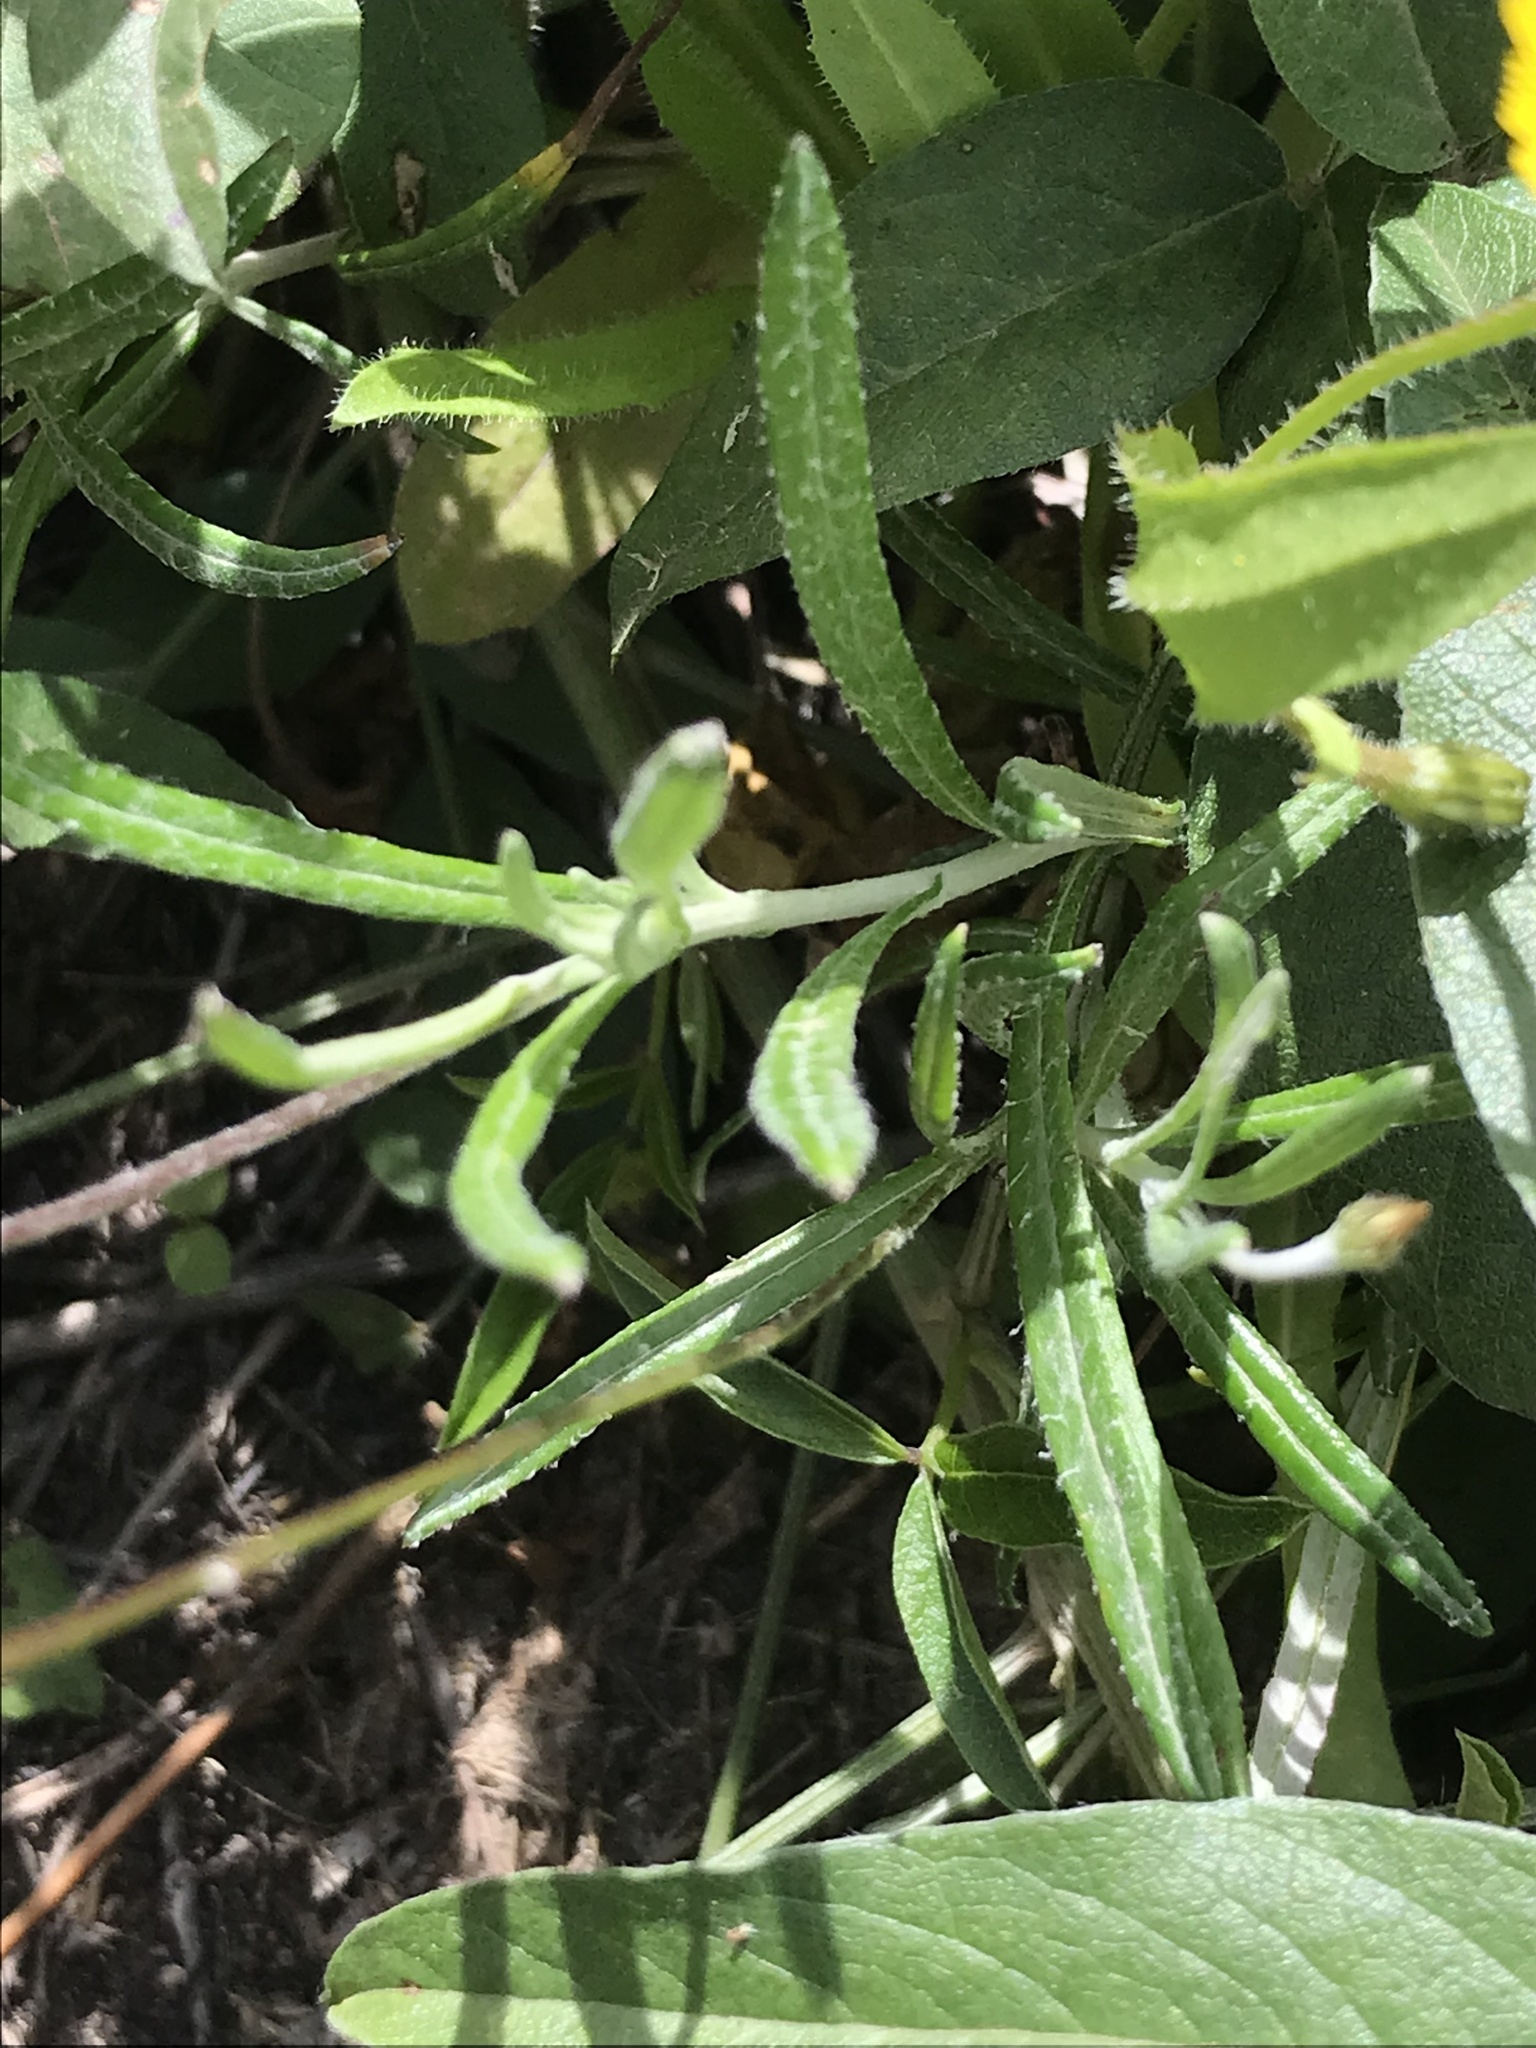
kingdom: Plantae
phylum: Tracheophyta
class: Magnoliopsida
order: Asterales
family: Asteraceae
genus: Phagnalon
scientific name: Phagnalon saxatile
